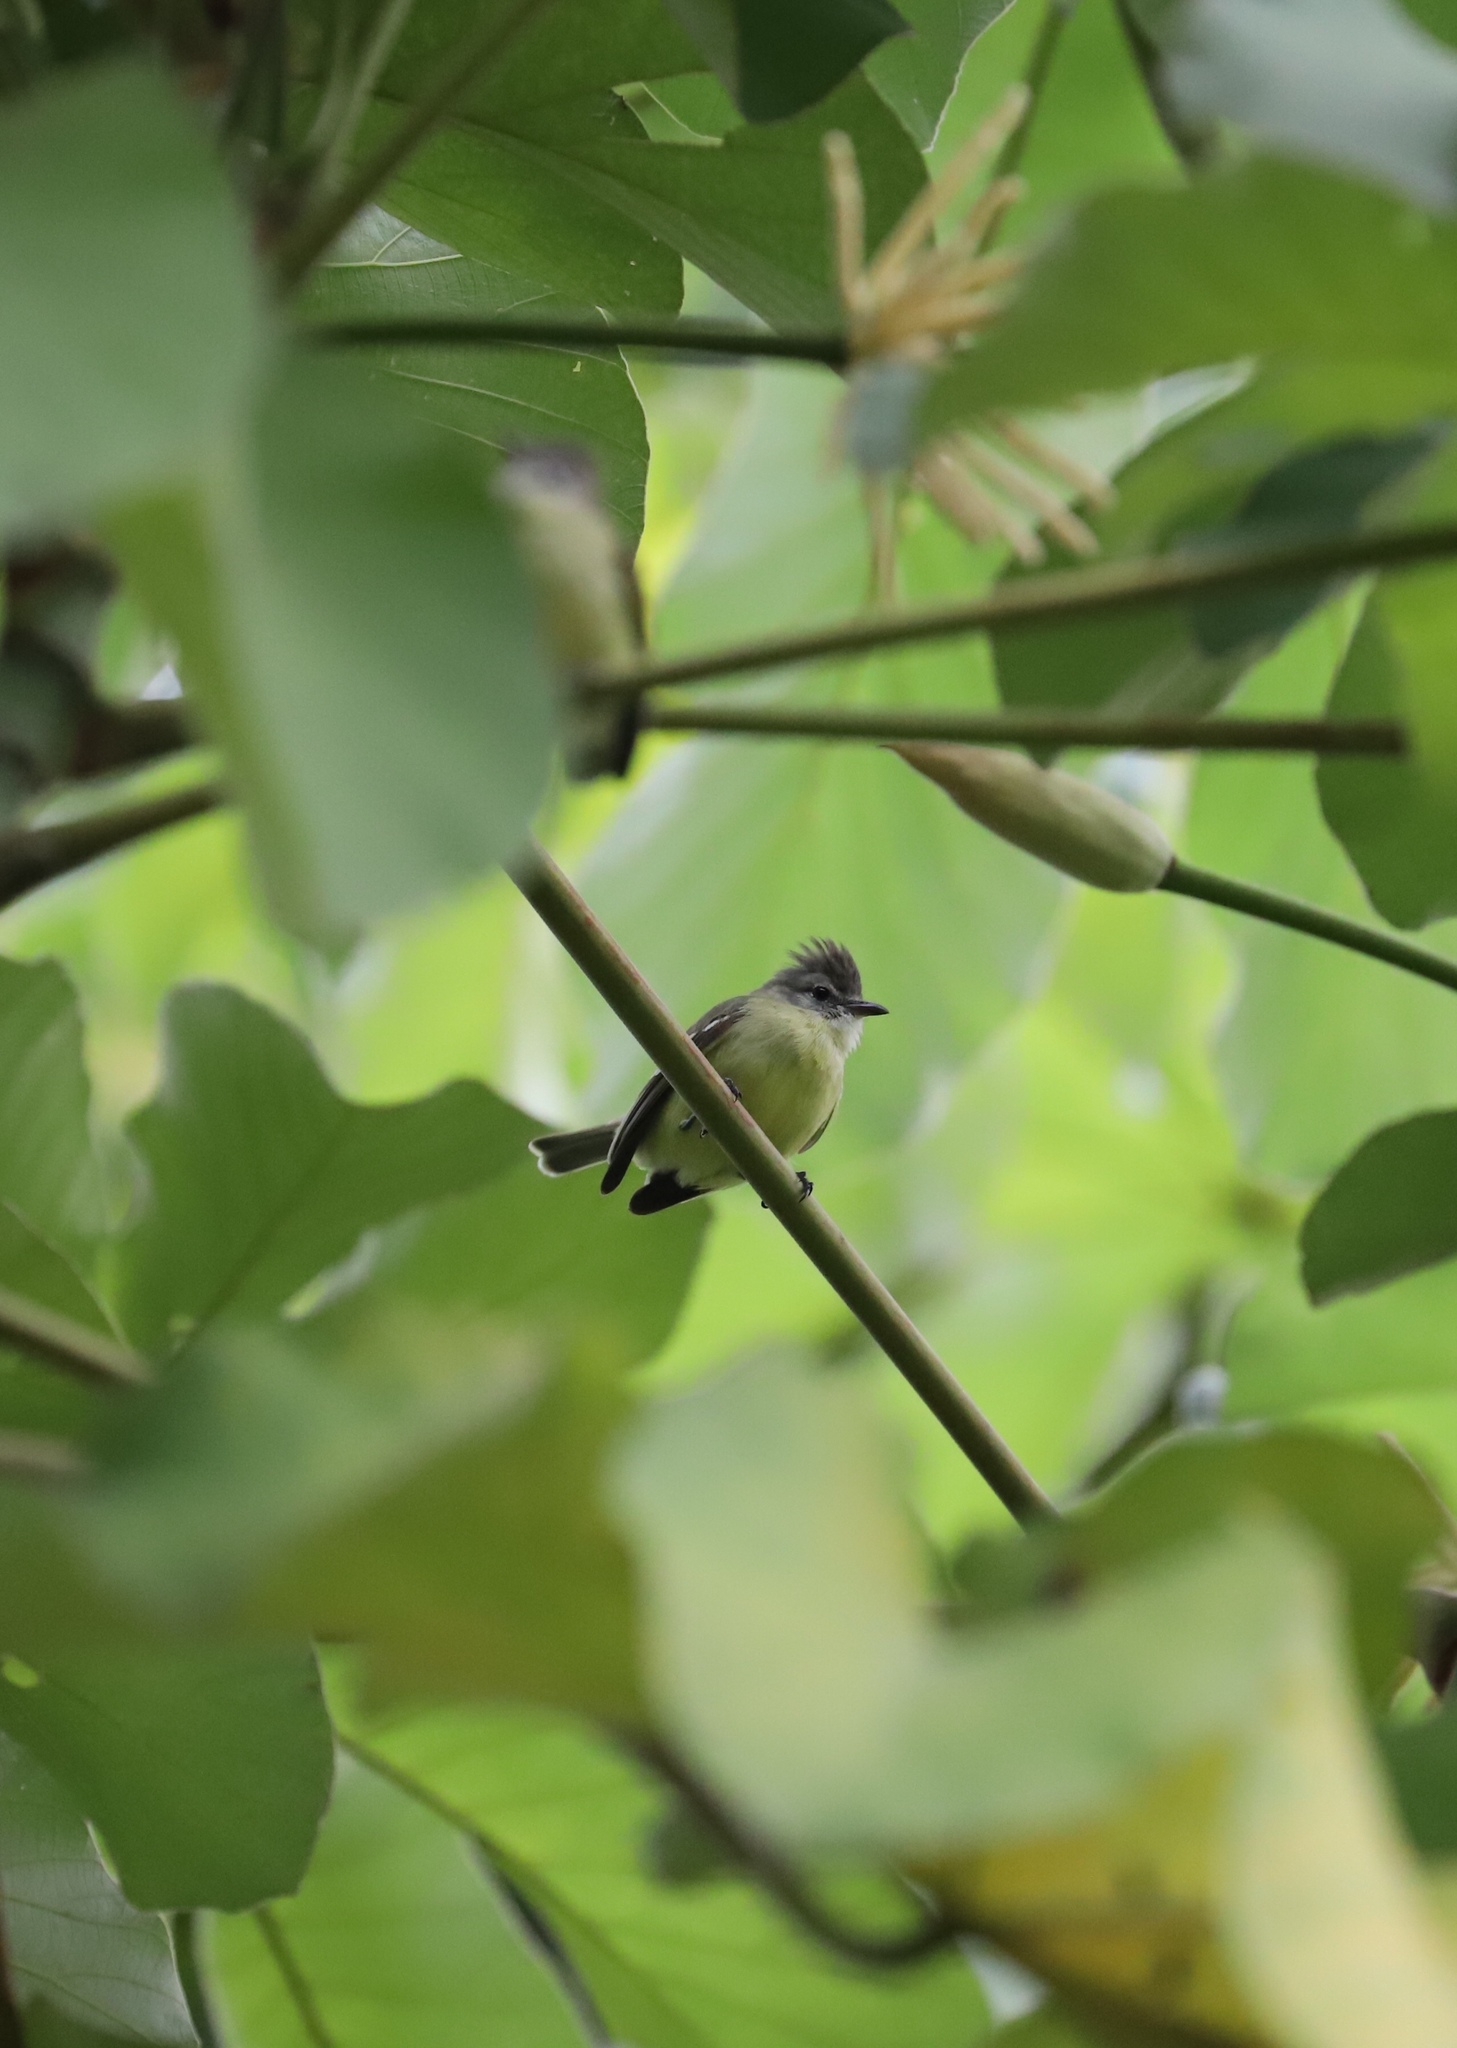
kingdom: Animalia
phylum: Chordata
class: Aves
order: Passeriformes
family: Tyrannidae
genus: Camptostoma
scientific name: Camptostoma obsoletum
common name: Southern beardless-tyrannulet
